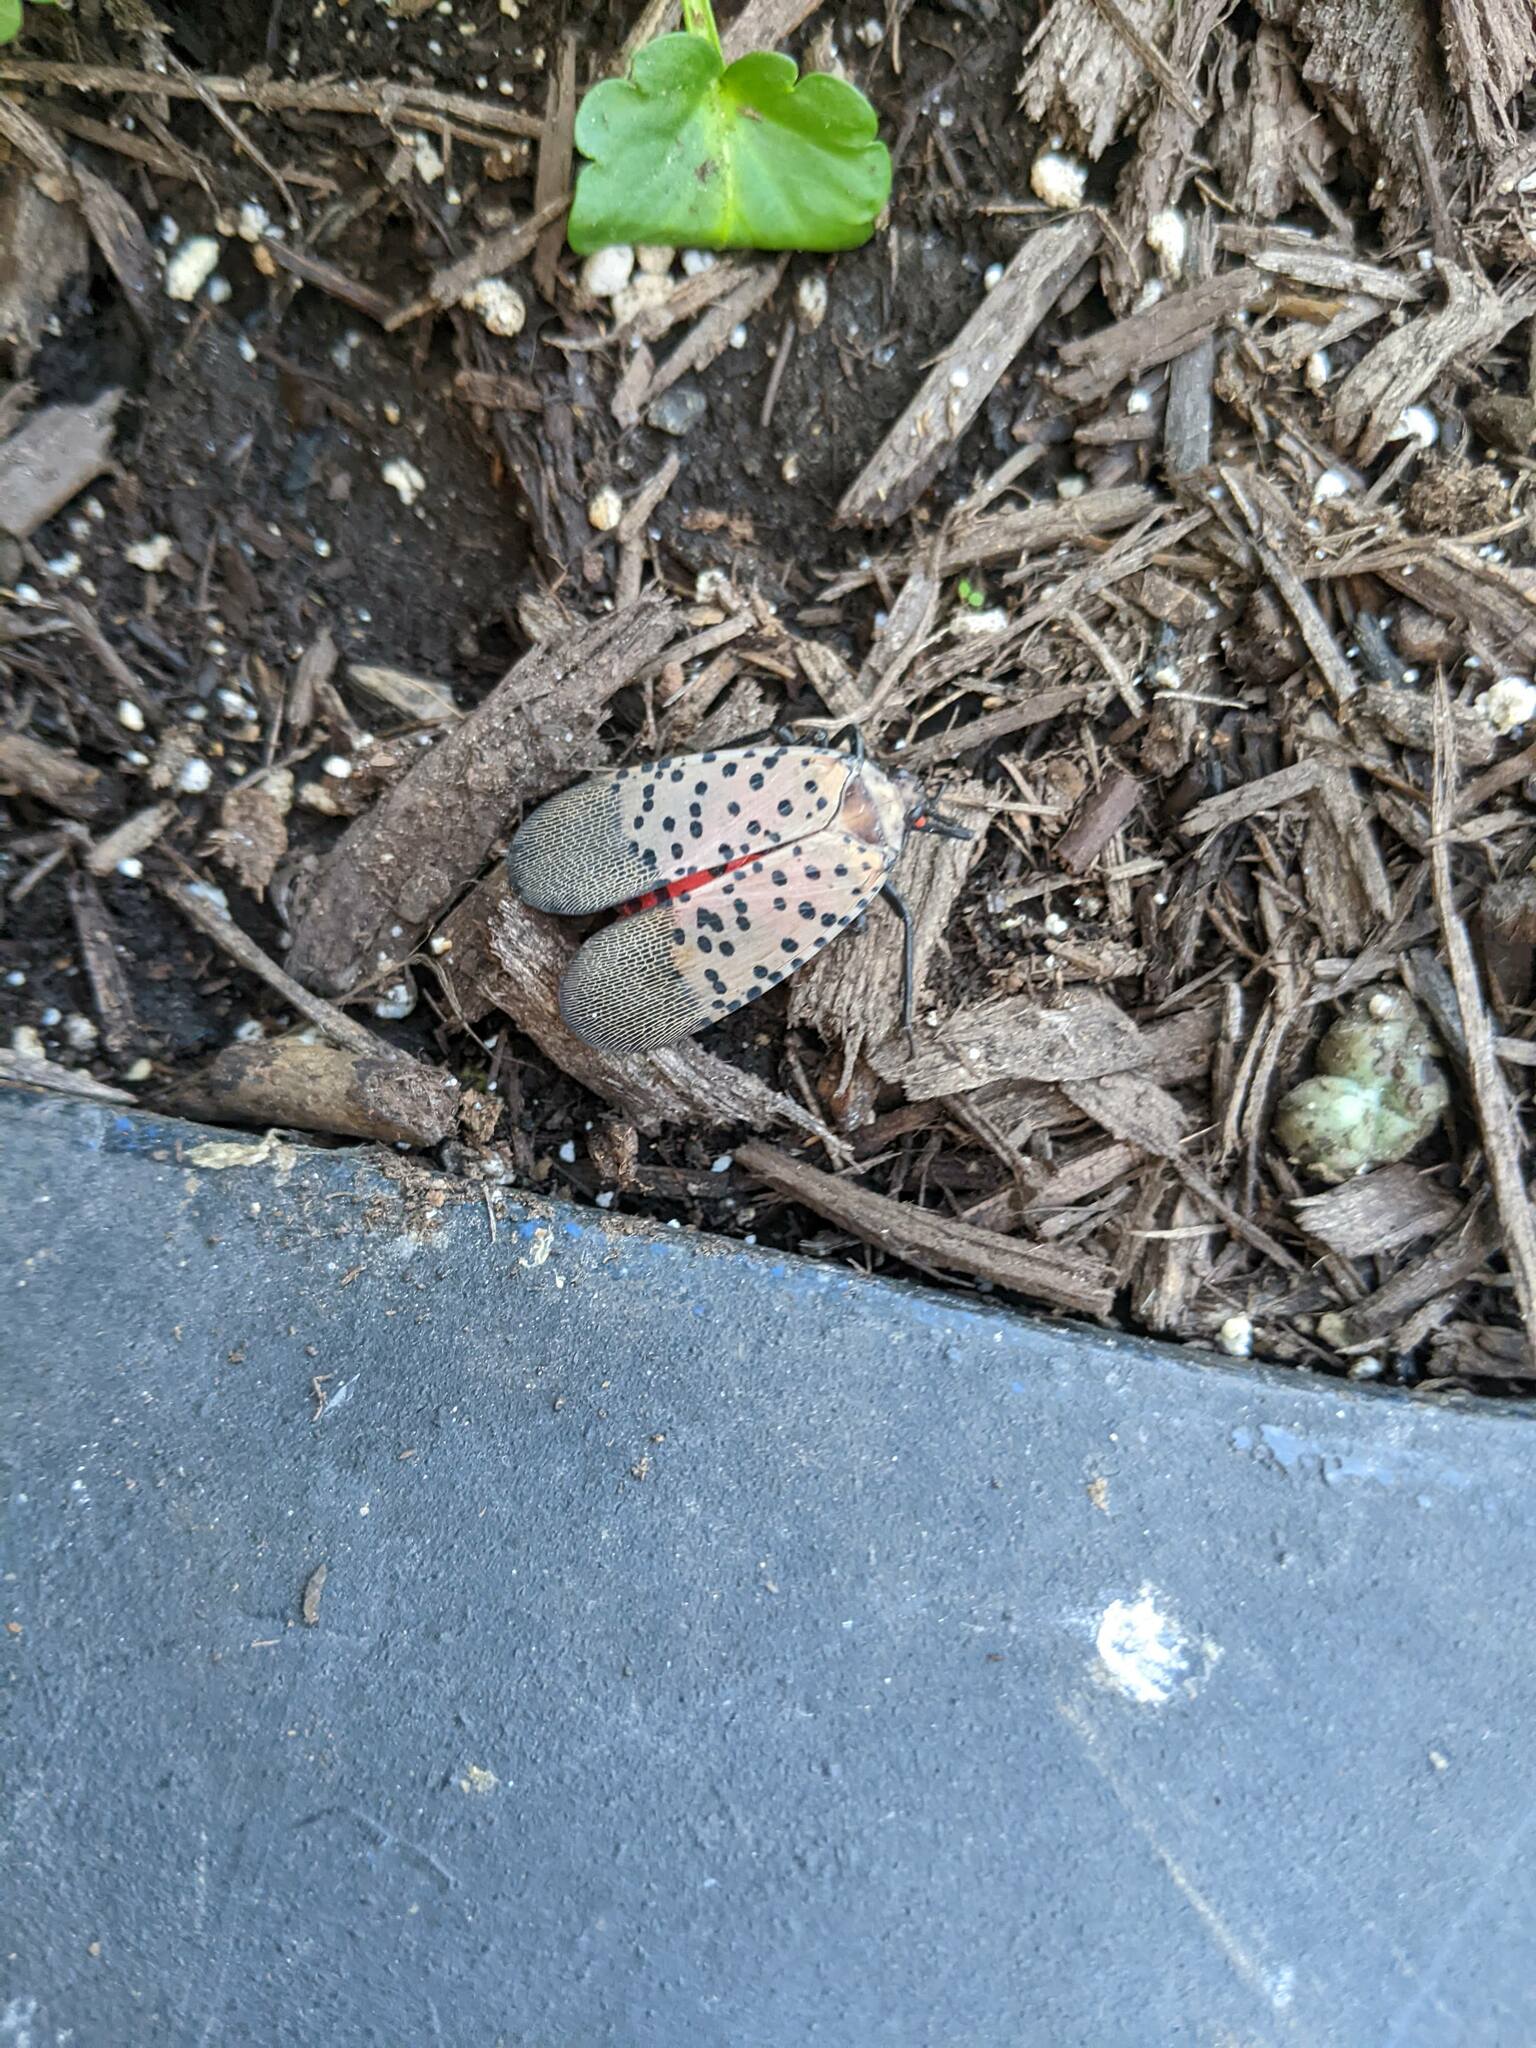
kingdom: Animalia
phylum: Arthropoda
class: Insecta
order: Hemiptera
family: Fulgoridae
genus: Lycorma
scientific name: Lycorma delicatula
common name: Spotted lanternfly
